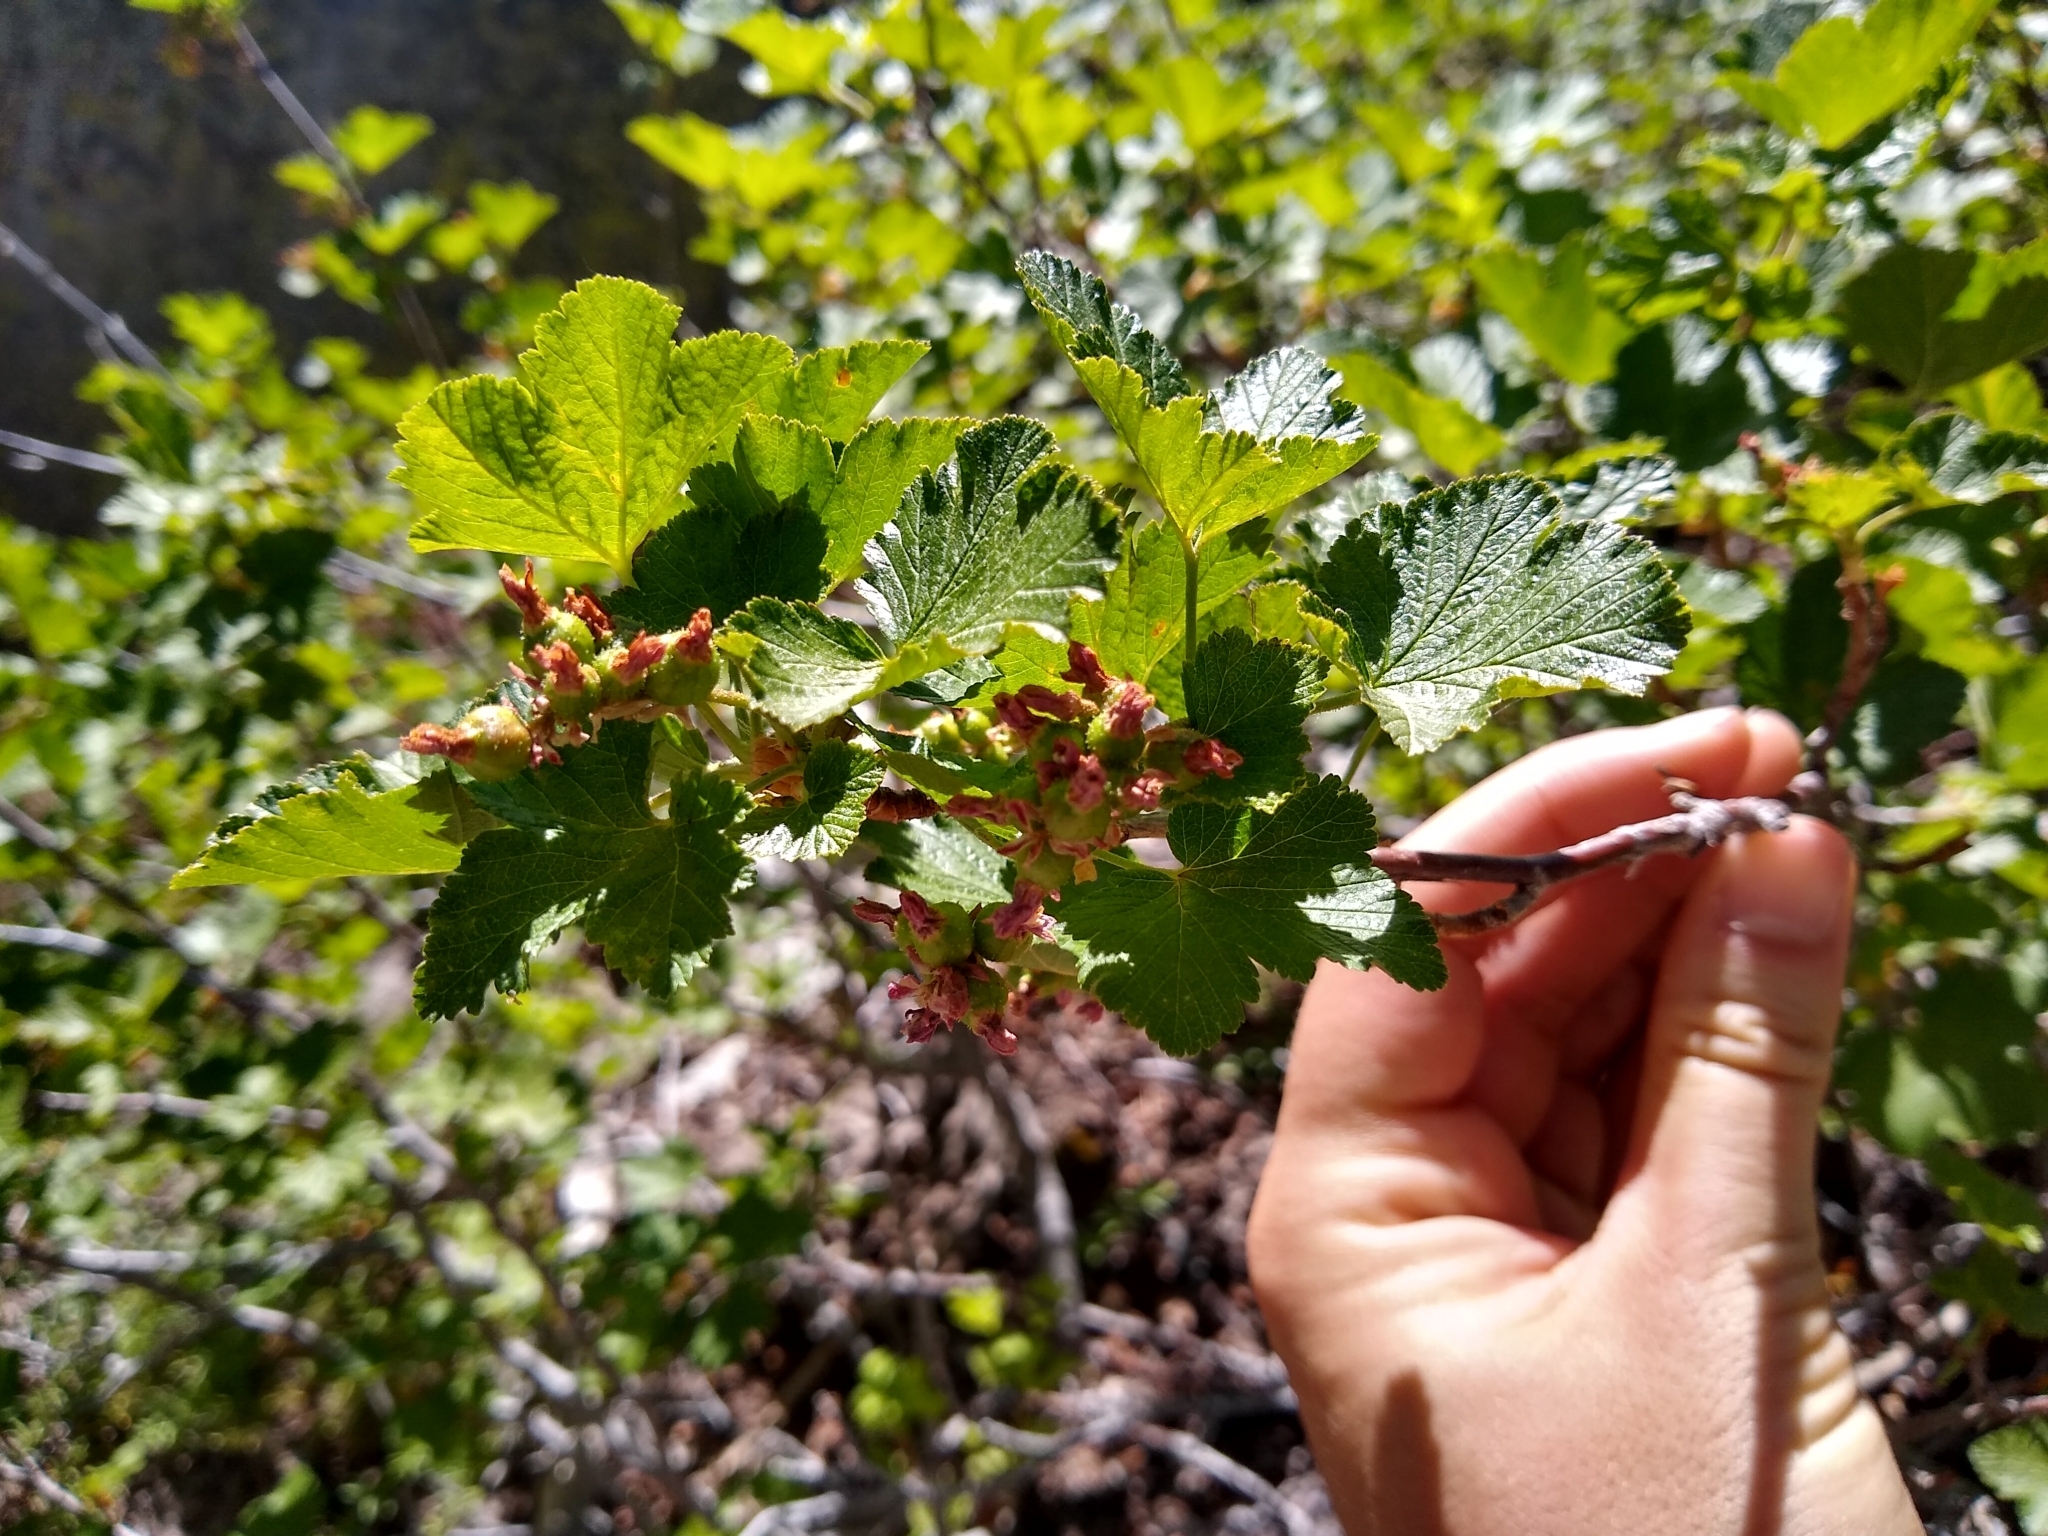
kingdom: Plantae
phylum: Tracheophyta
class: Magnoliopsida
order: Fagales
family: Betulaceae
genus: Corylus
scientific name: Corylus cornuta
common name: Beaked hazel
